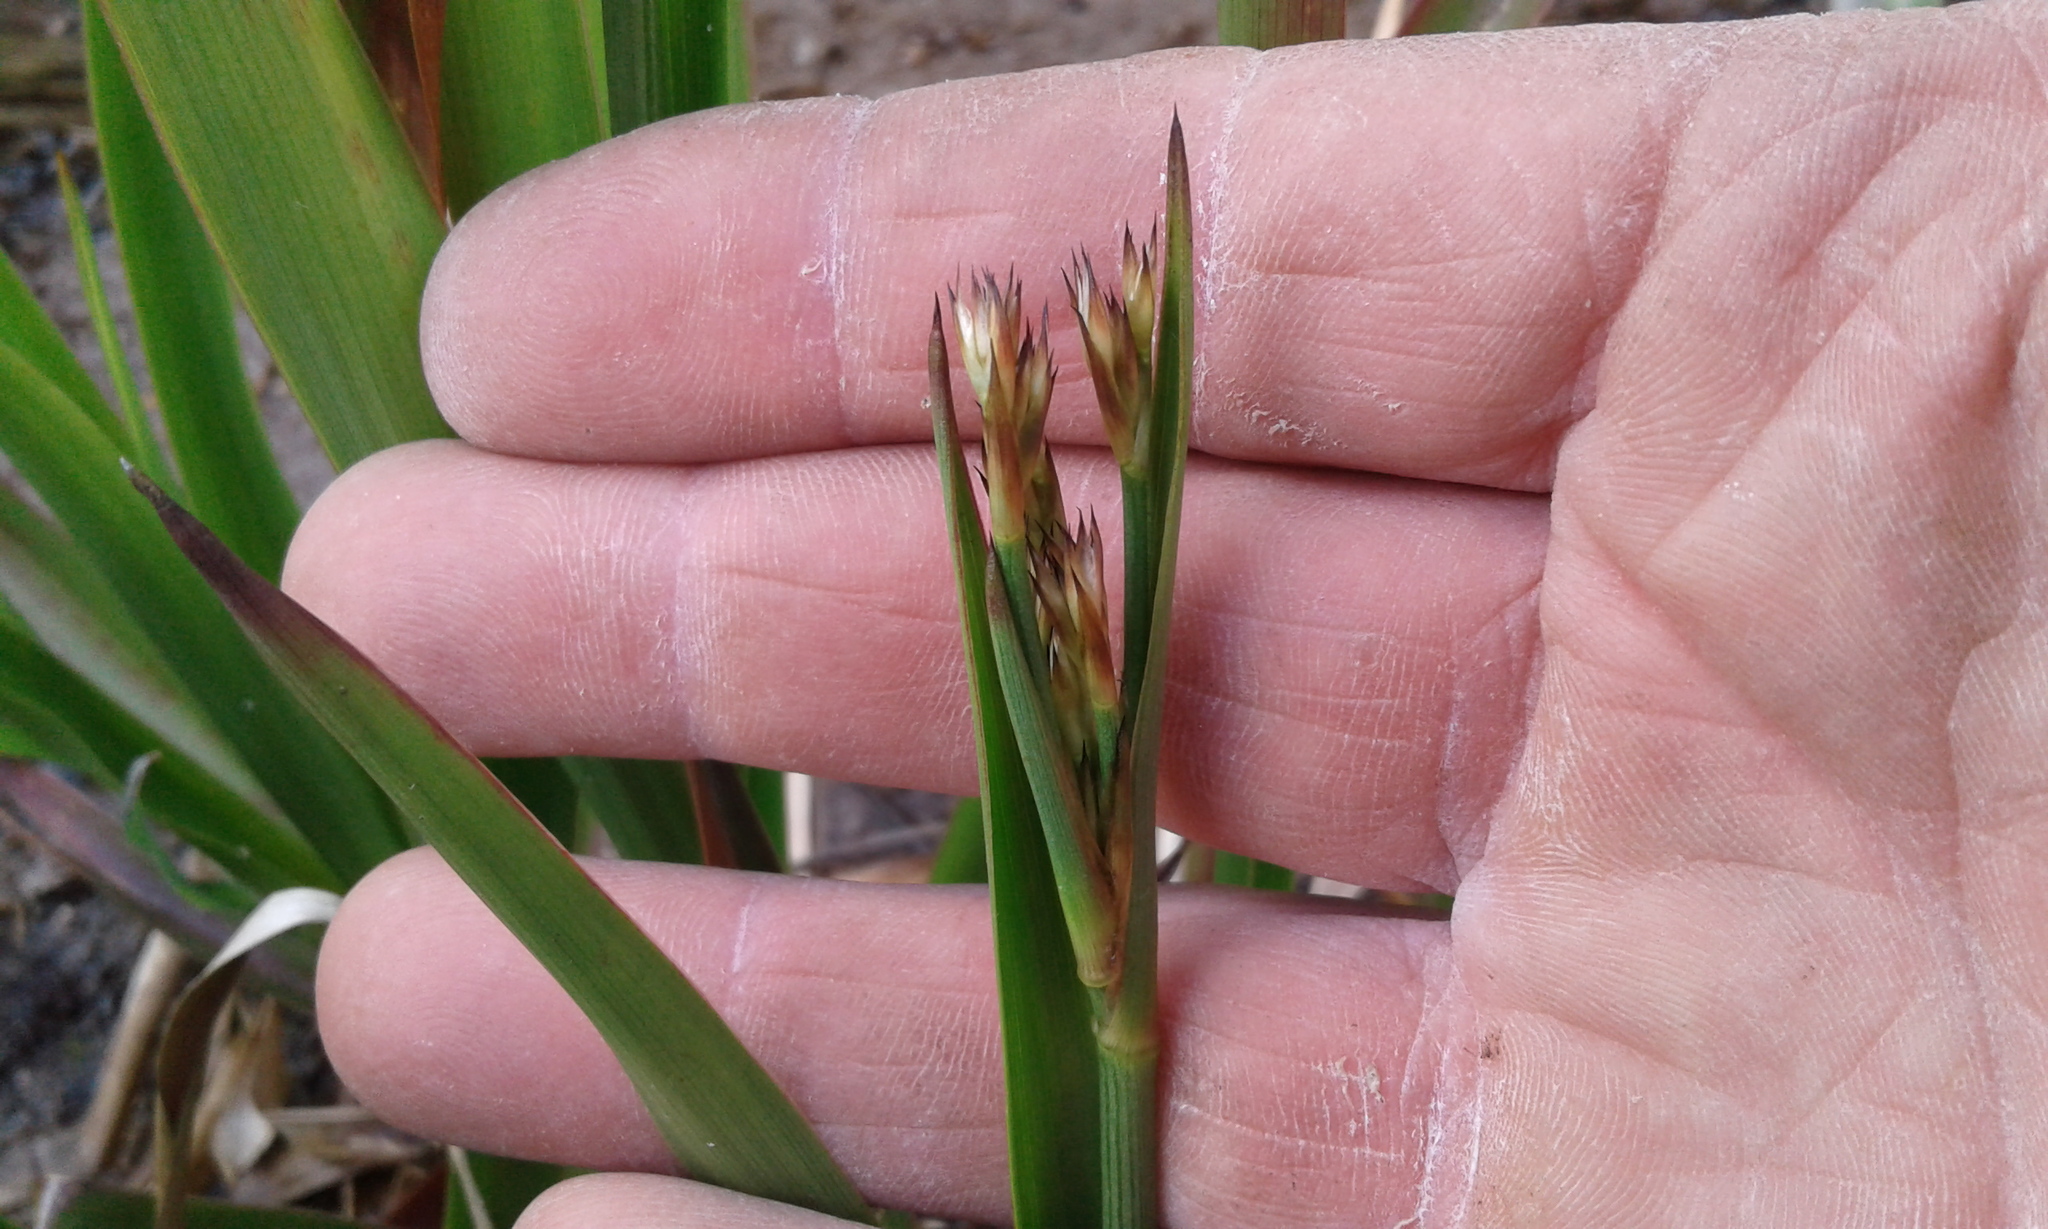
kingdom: Plantae
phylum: Tracheophyta
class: Liliopsida
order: Poales
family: Juncaceae
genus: Juncus
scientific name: Juncus lomatophyllus
